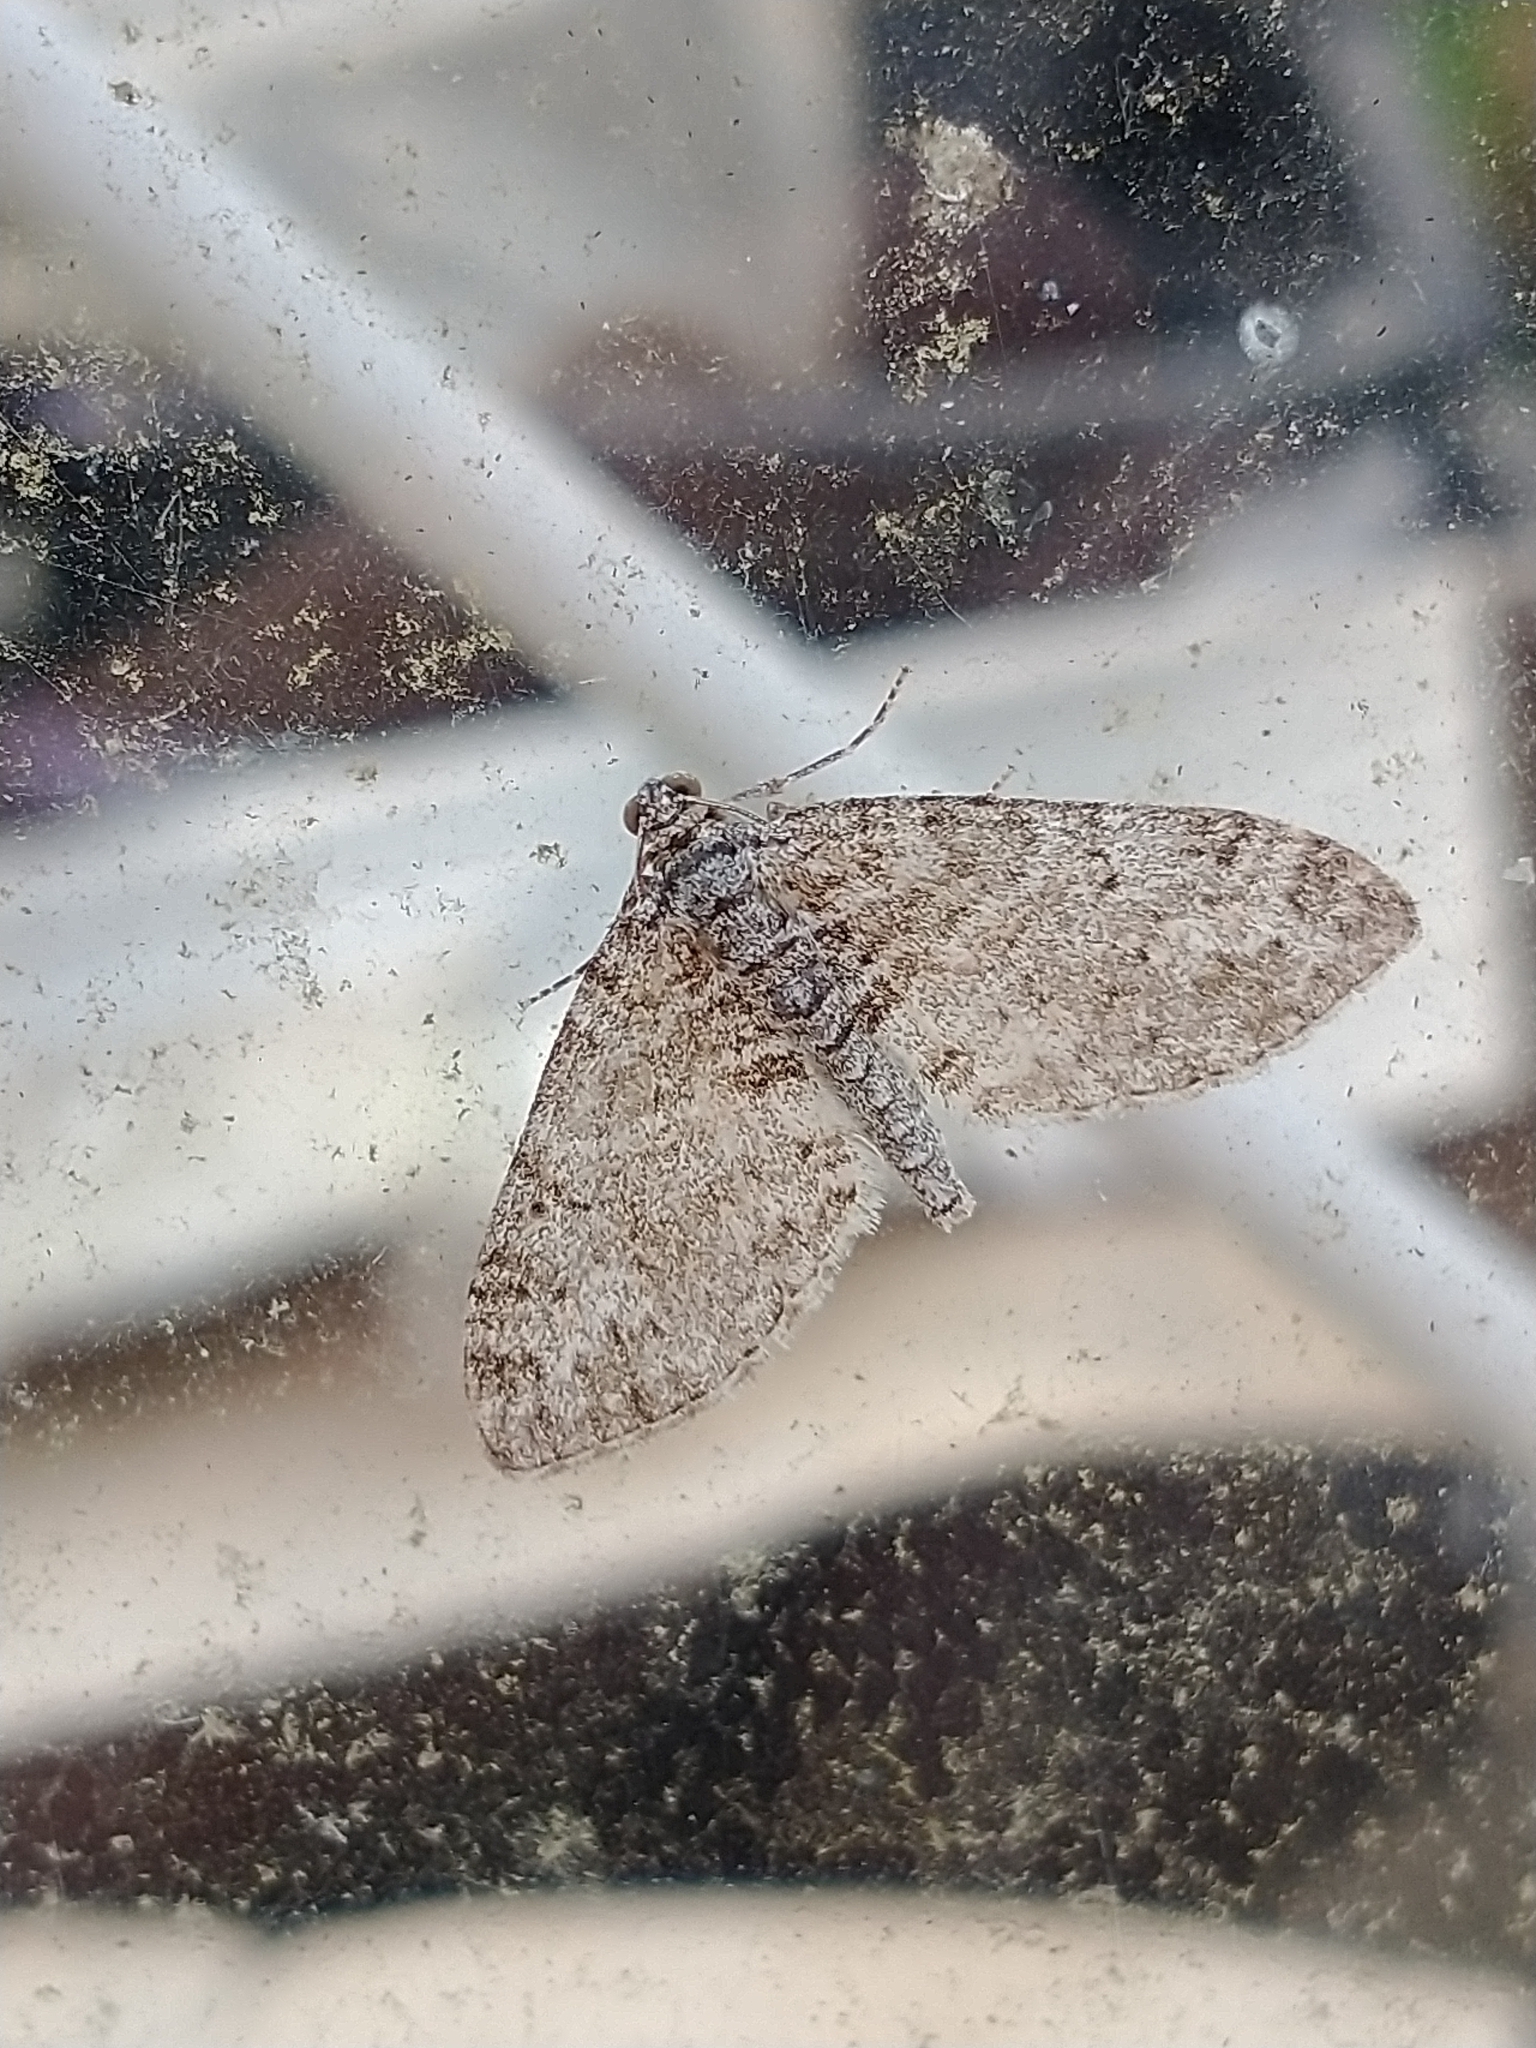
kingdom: Animalia
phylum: Arthropoda
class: Insecta
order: Lepidoptera
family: Geometridae
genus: Lobophora
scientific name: Lobophora halterata
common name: Seraphim
